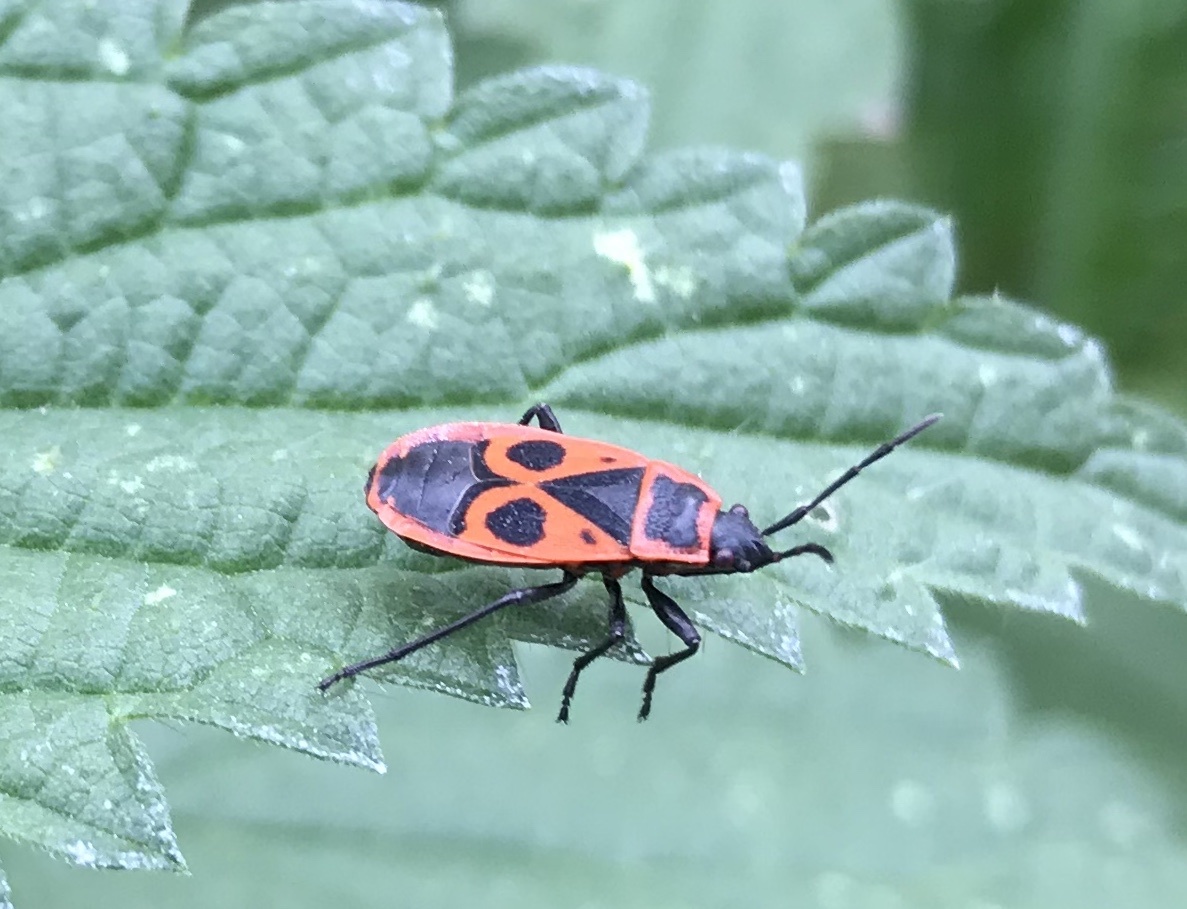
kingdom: Animalia
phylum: Arthropoda
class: Insecta
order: Hemiptera
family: Pyrrhocoridae
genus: Pyrrhocoris
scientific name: Pyrrhocoris apterus
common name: Firebug
